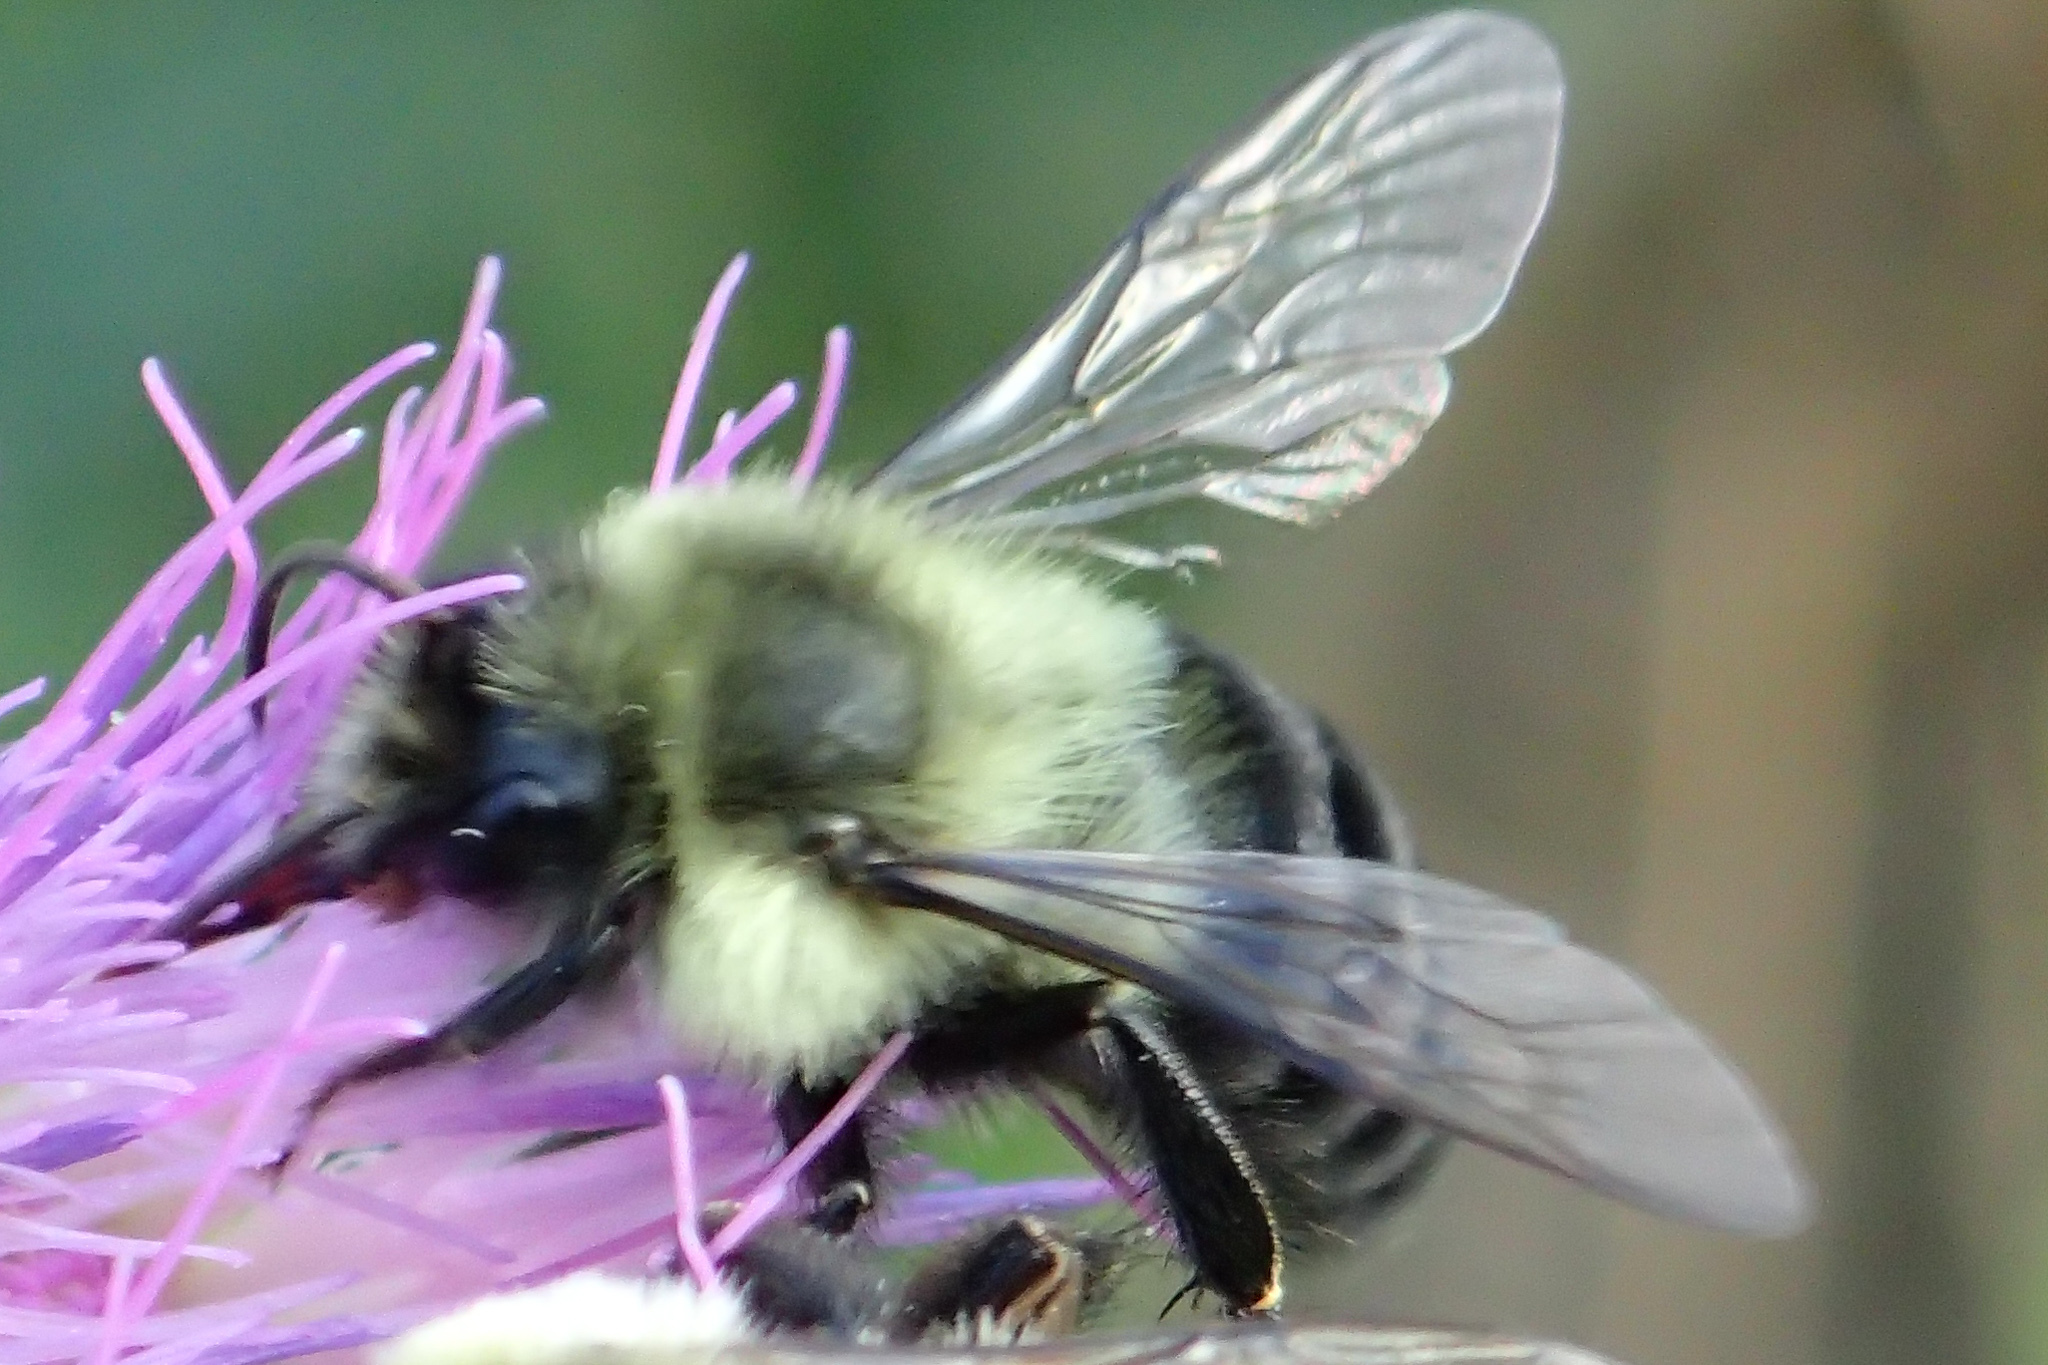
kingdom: Animalia
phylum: Arthropoda
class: Insecta
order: Hymenoptera
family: Apidae
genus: Bombus
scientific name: Bombus impatiens
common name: Common eastern bumble bee
